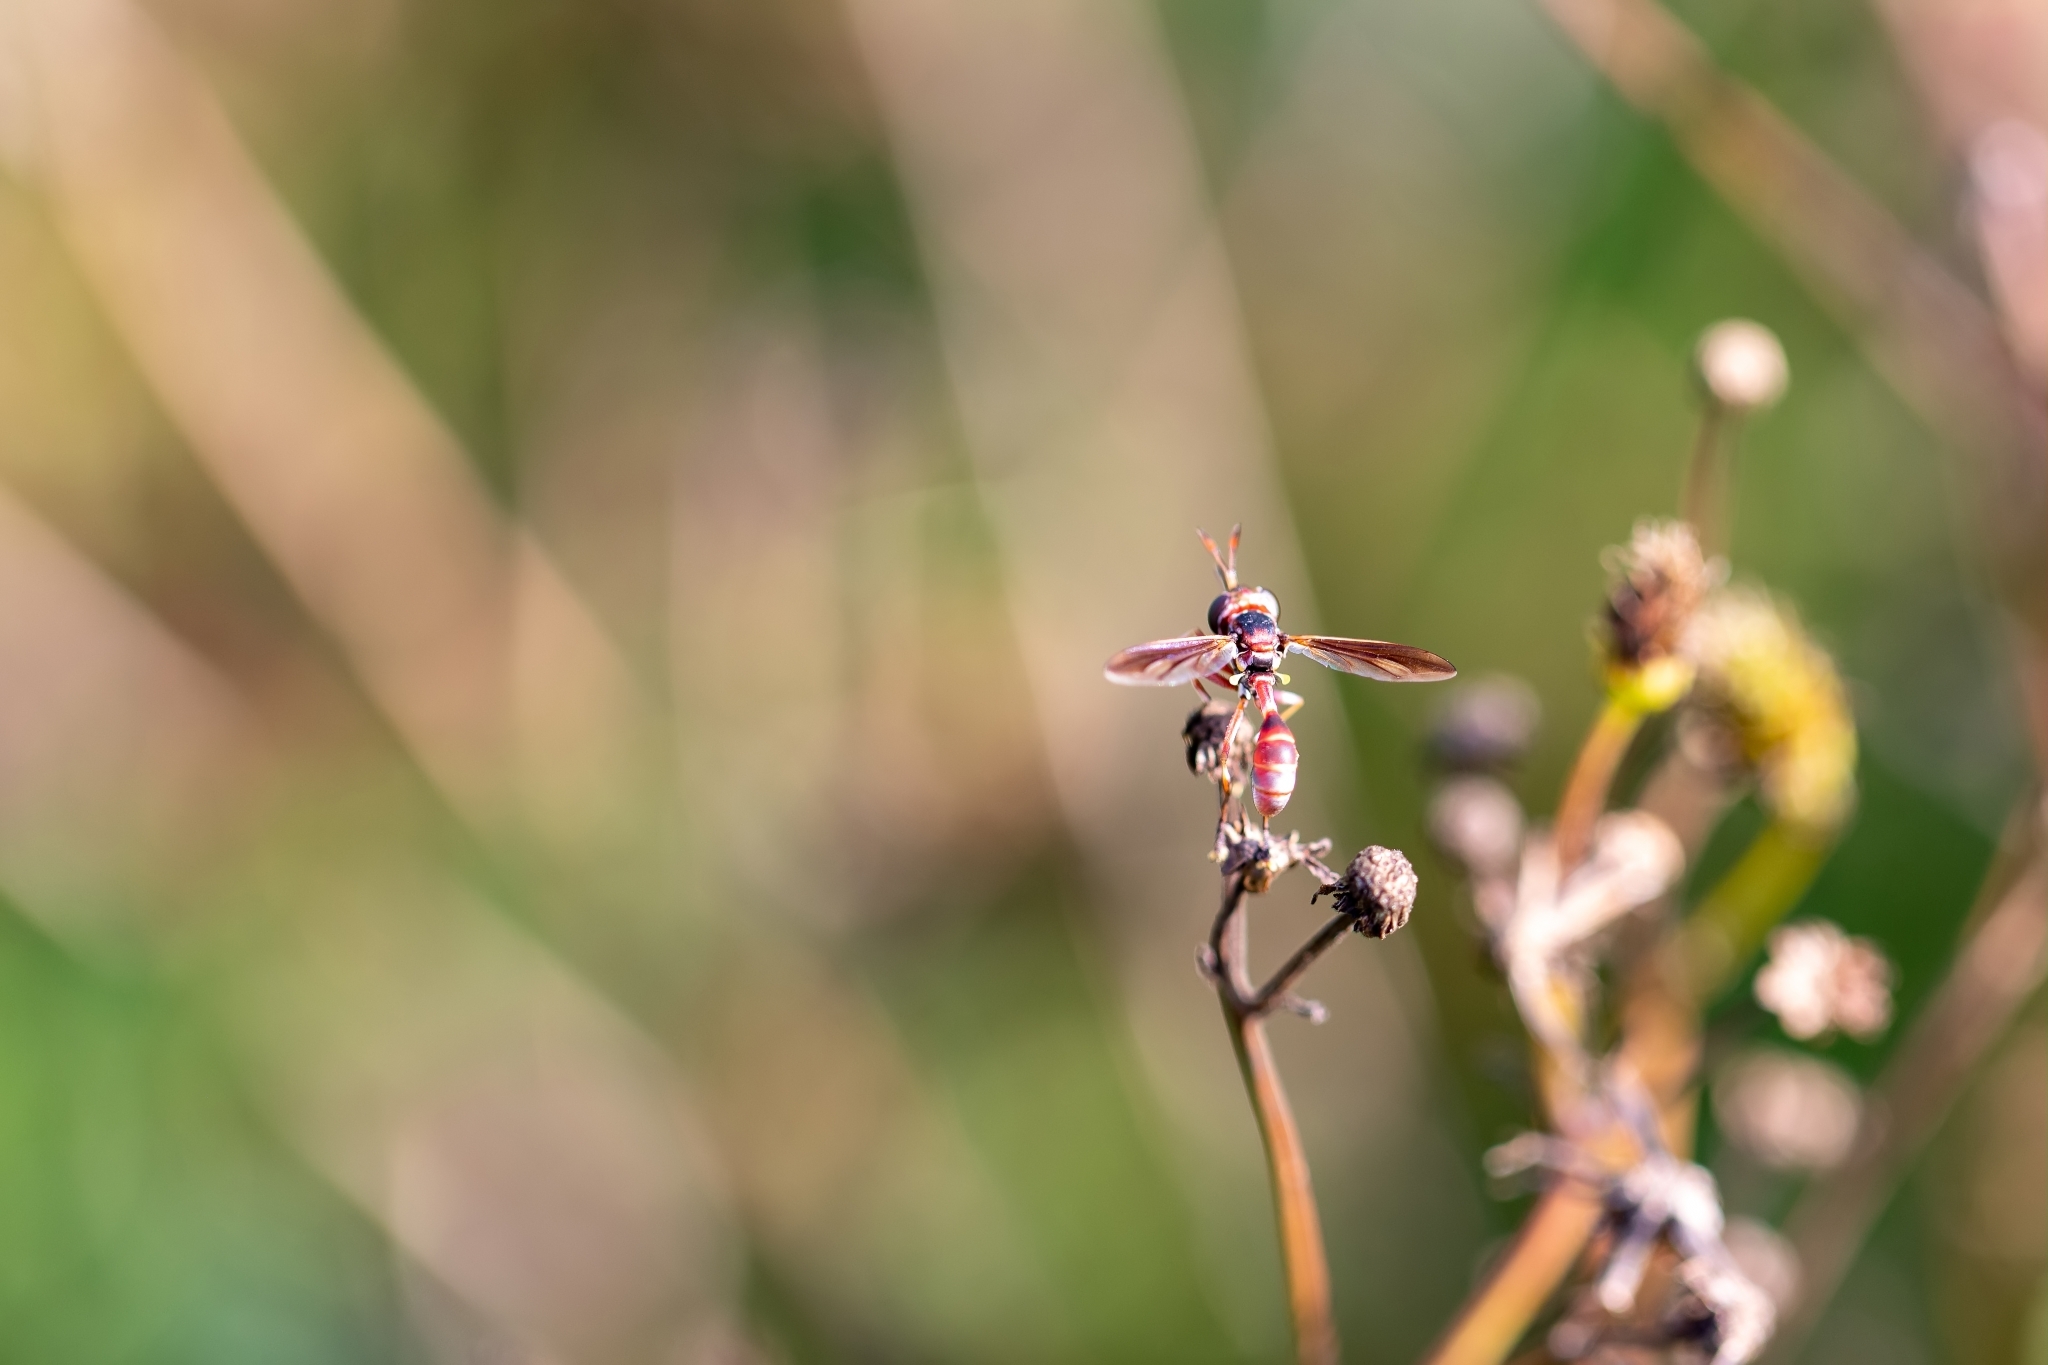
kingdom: Animalia
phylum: Arthropoda
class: Insecta
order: Diptera
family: Conopidae
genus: Physoconops
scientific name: Physoconops excisus
